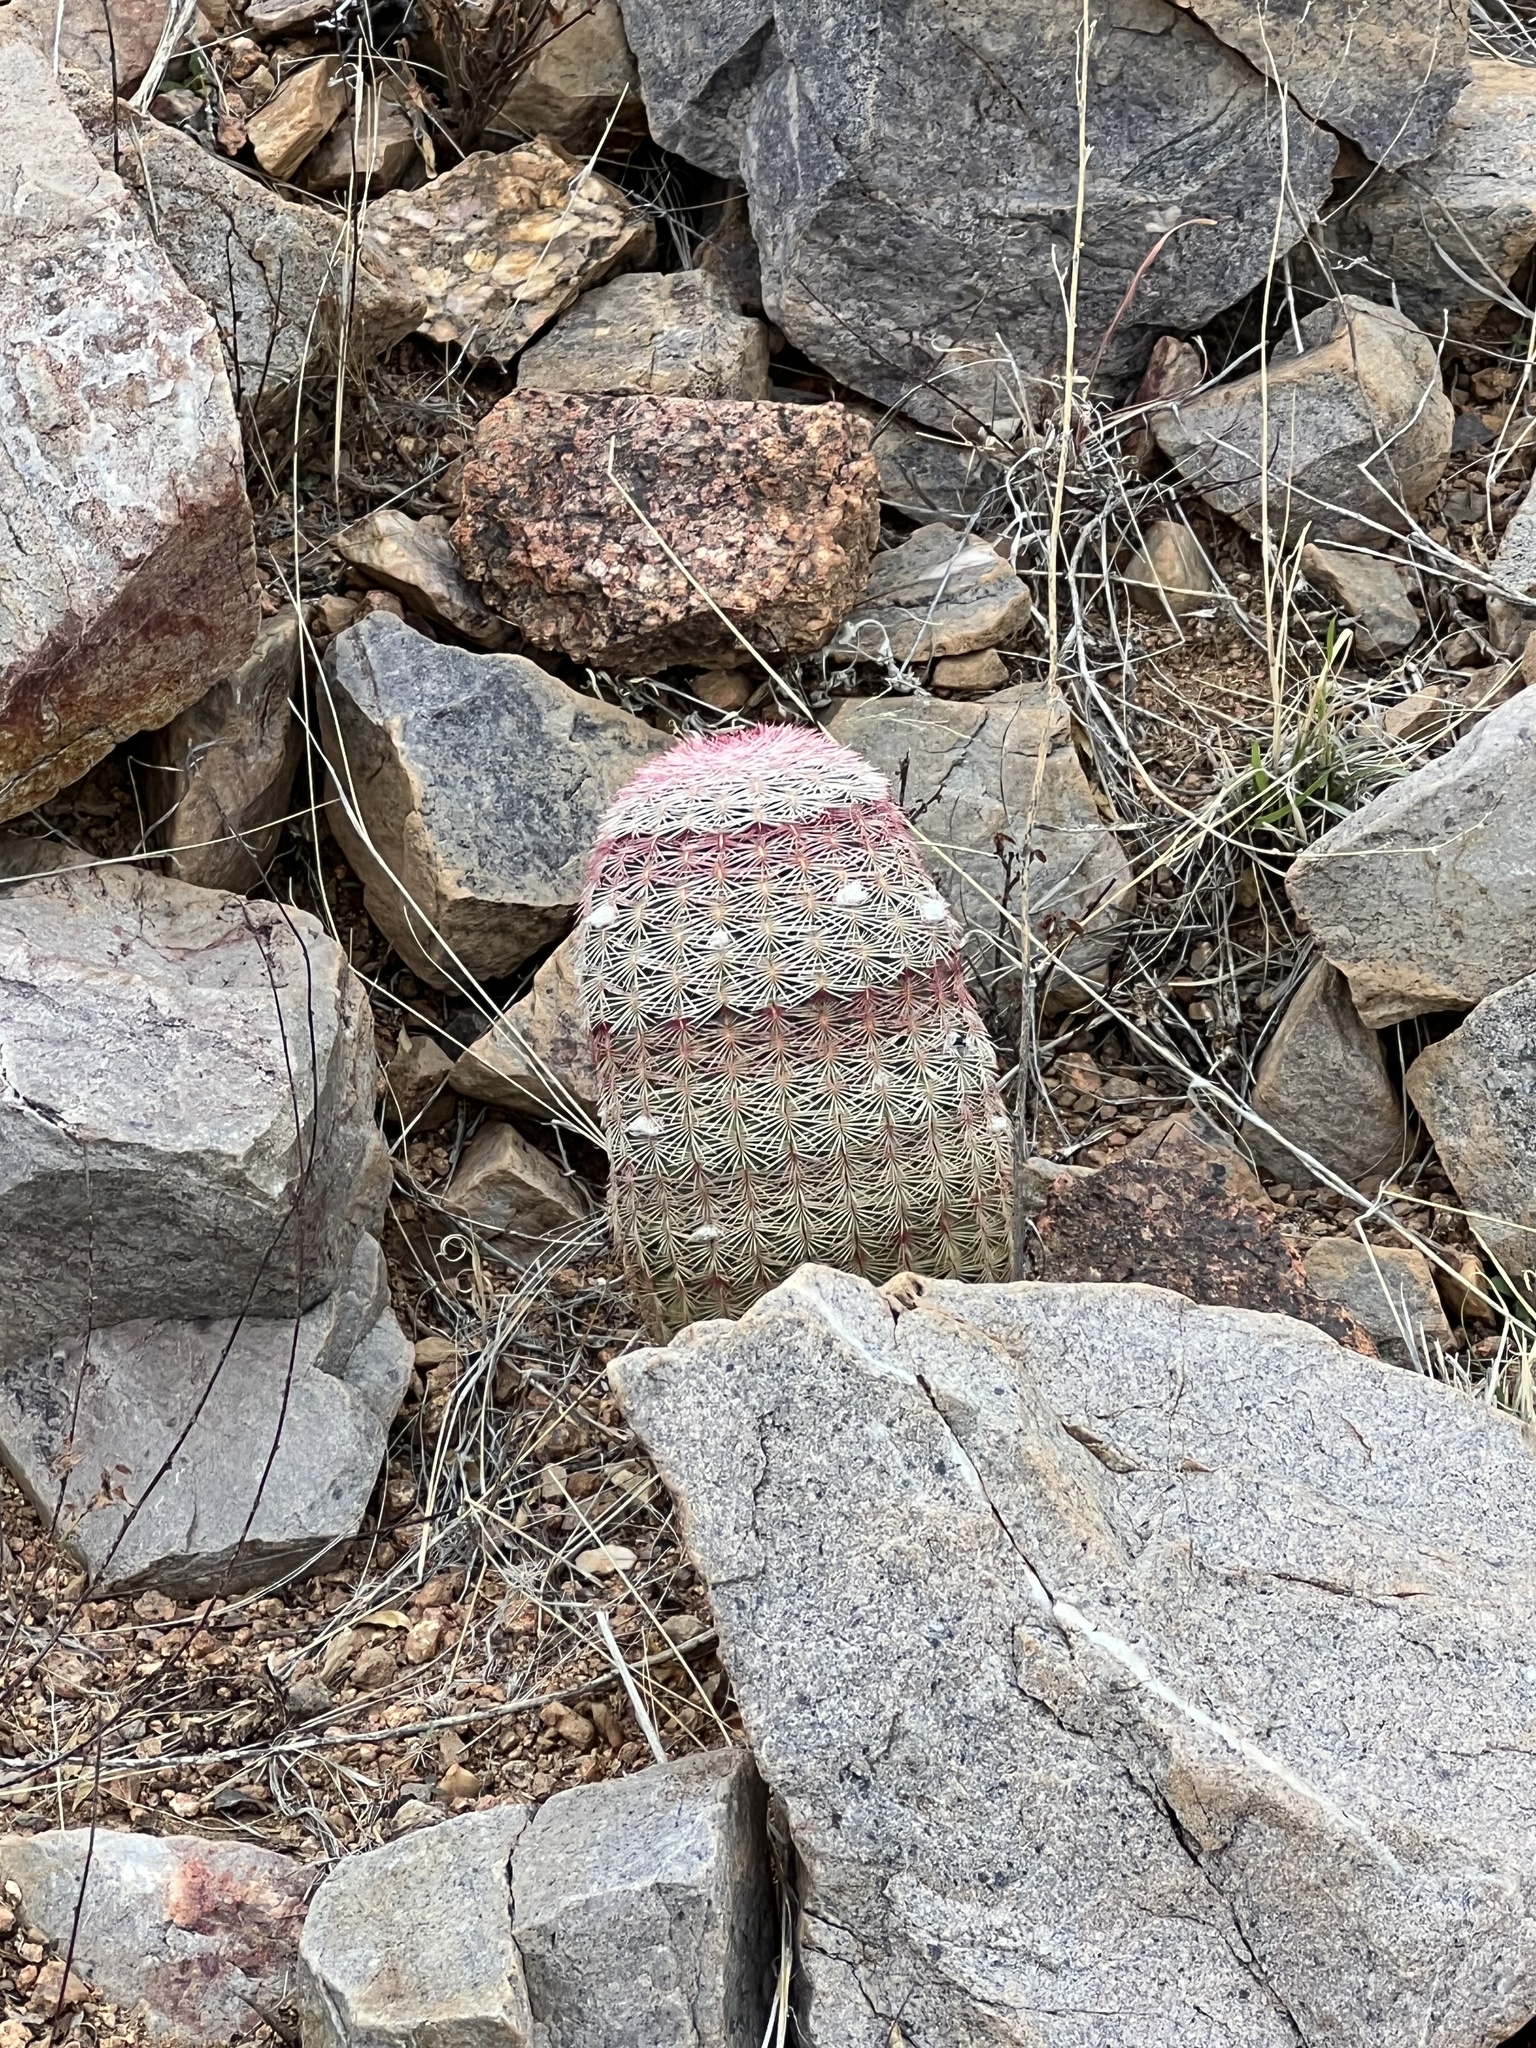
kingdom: Plantae
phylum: Tracheophyta
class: Magnoliopsida
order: Caryophyllales
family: Cactaceae
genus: Echinocereus
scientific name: Echinocereus rigidissimus
